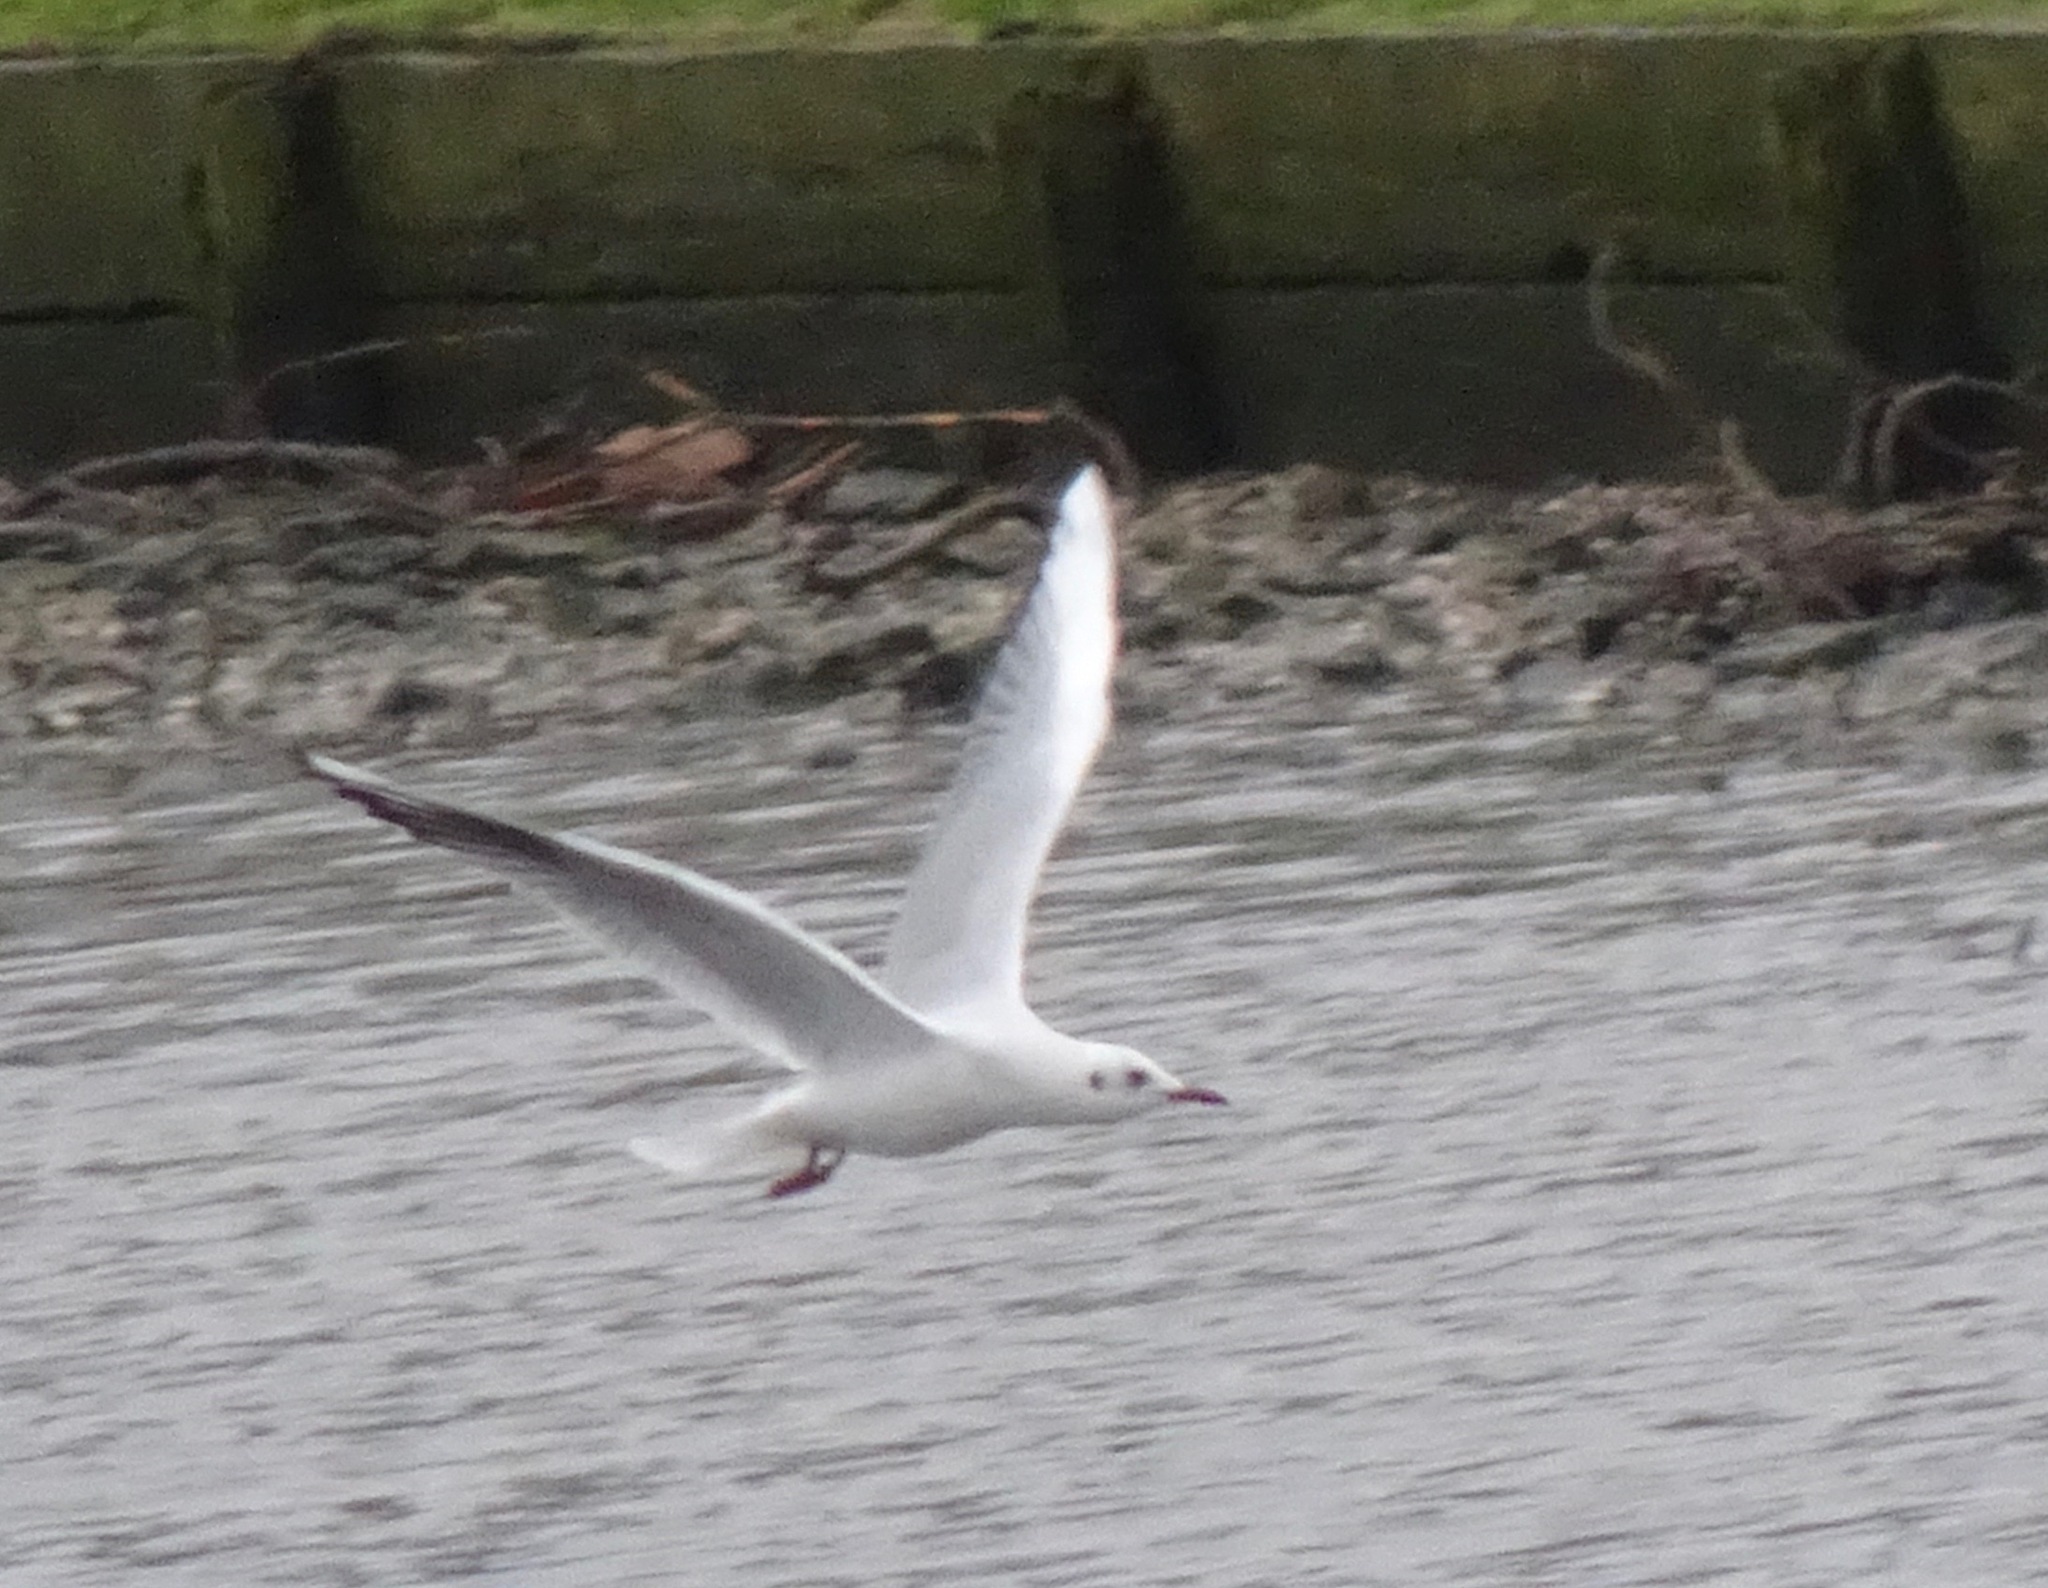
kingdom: Animalia
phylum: Chordata
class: Aves
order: Charadriiformes
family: Laridae
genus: Chroicocephalus
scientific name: Chroicocephalus ridibundus
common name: Black-headed gull
